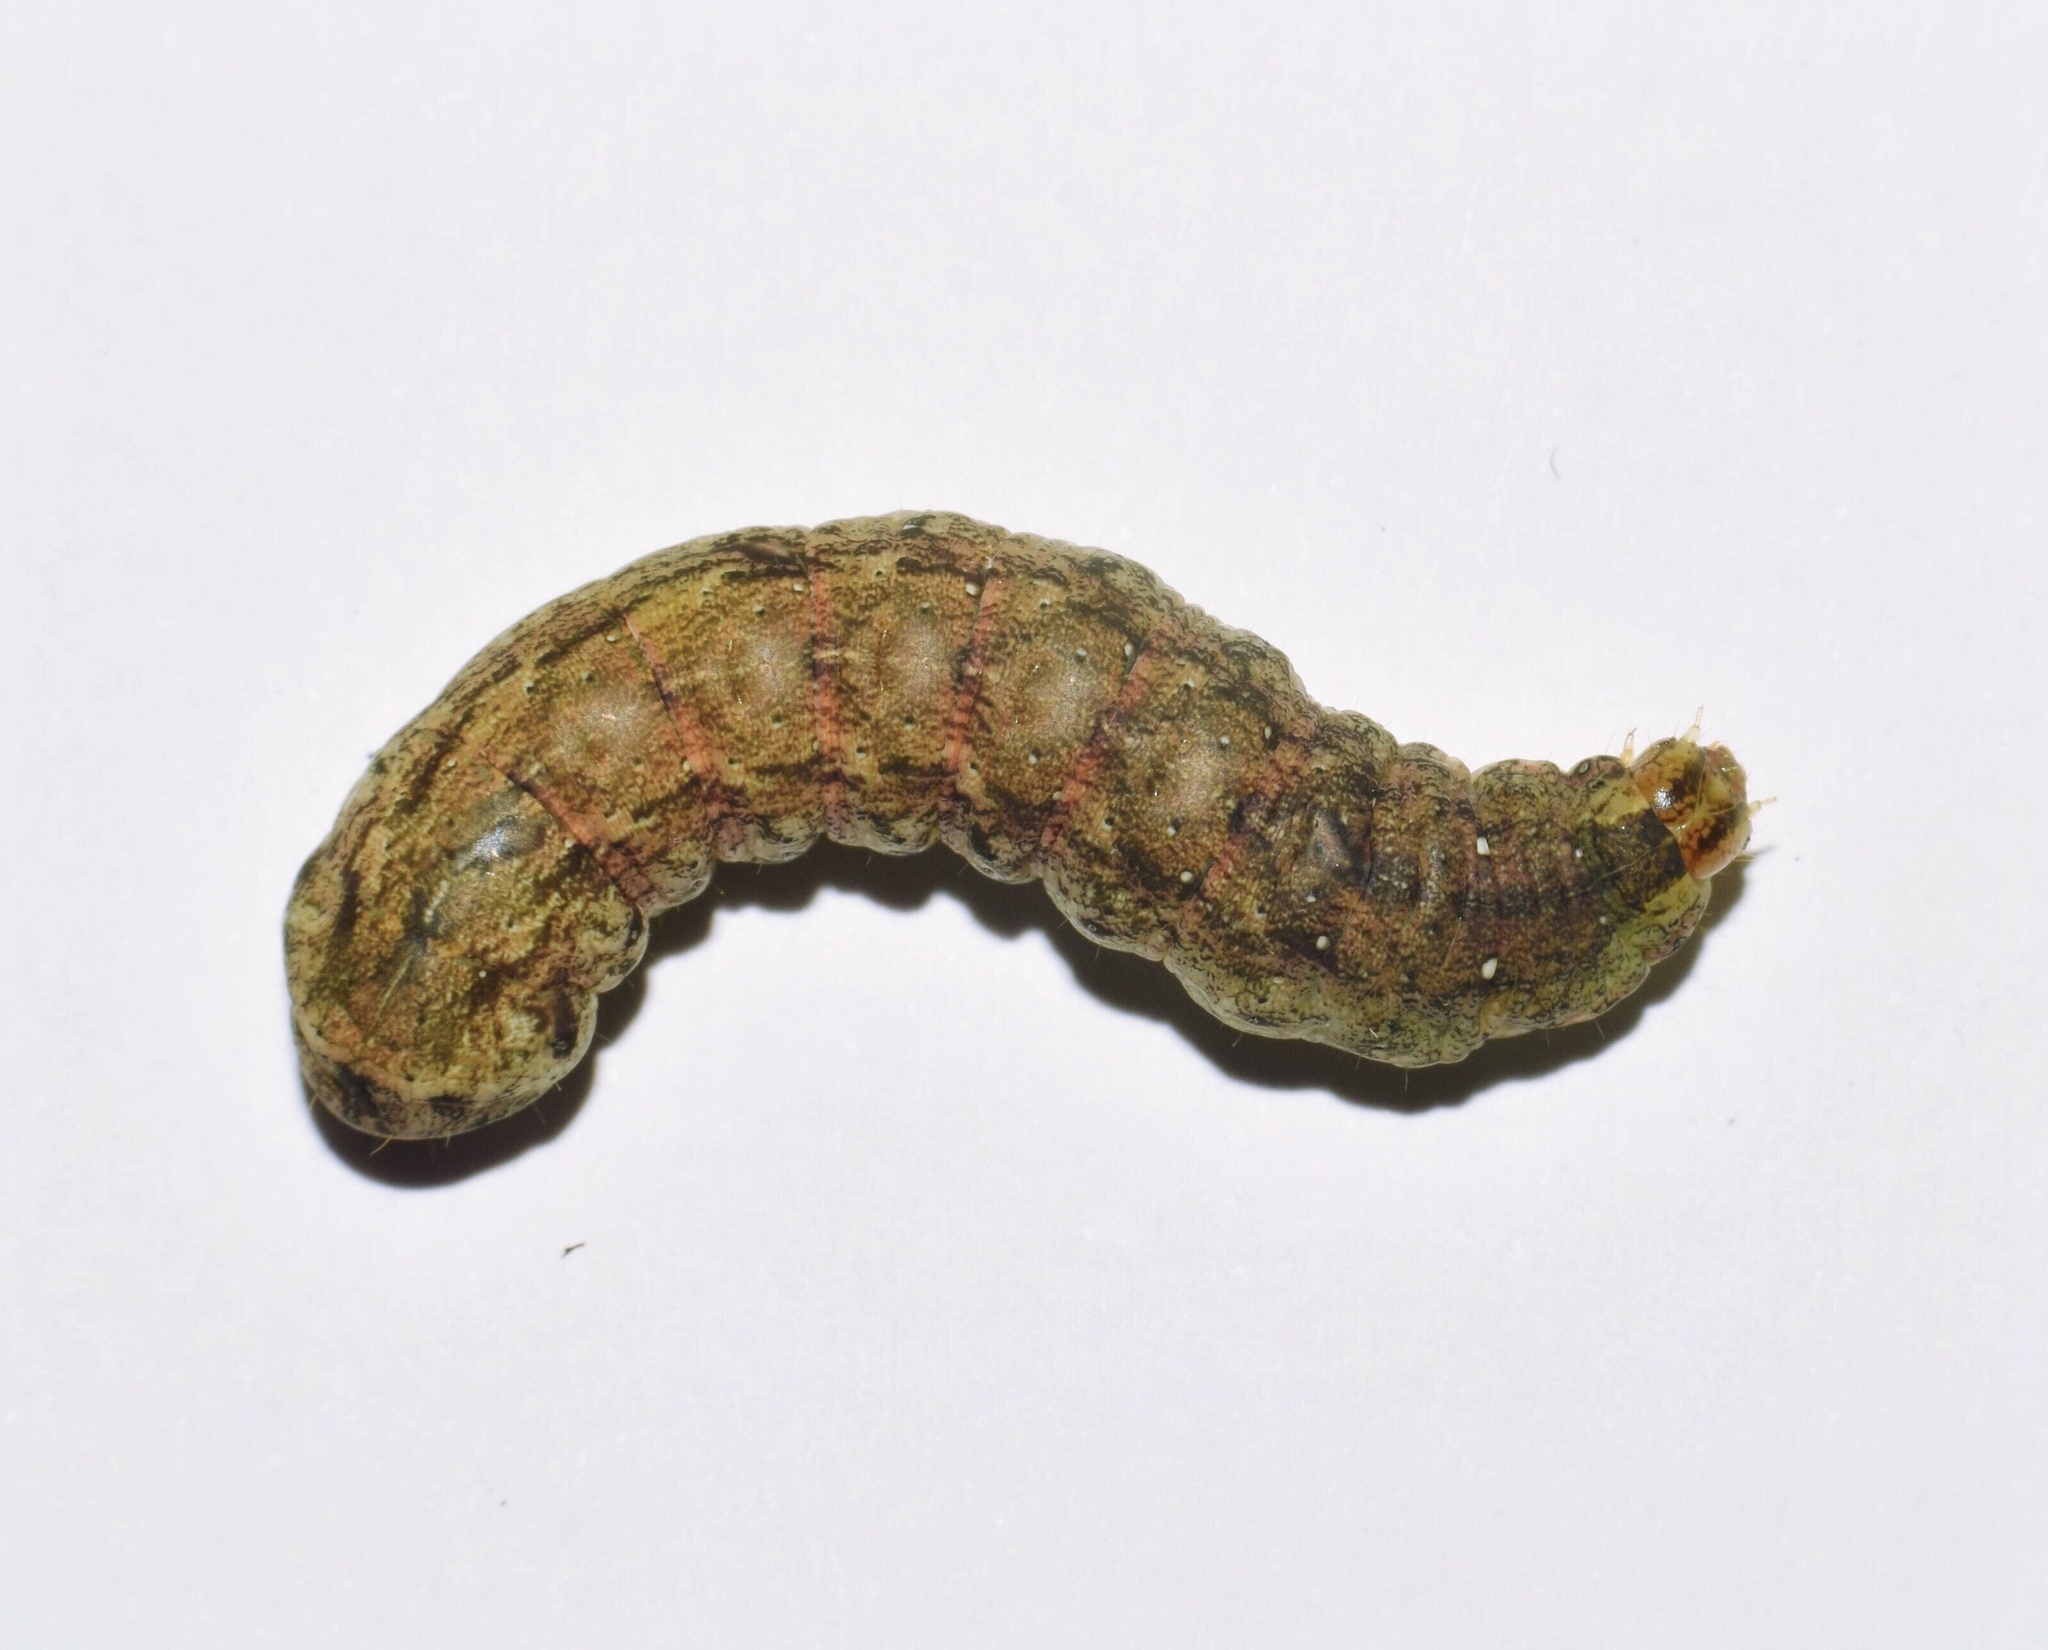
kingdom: Animalia
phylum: Arthropoda
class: Insecta
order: Lepidoptera
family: Noctuidae
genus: Mentaxya
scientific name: Mentaxya ignicollis
